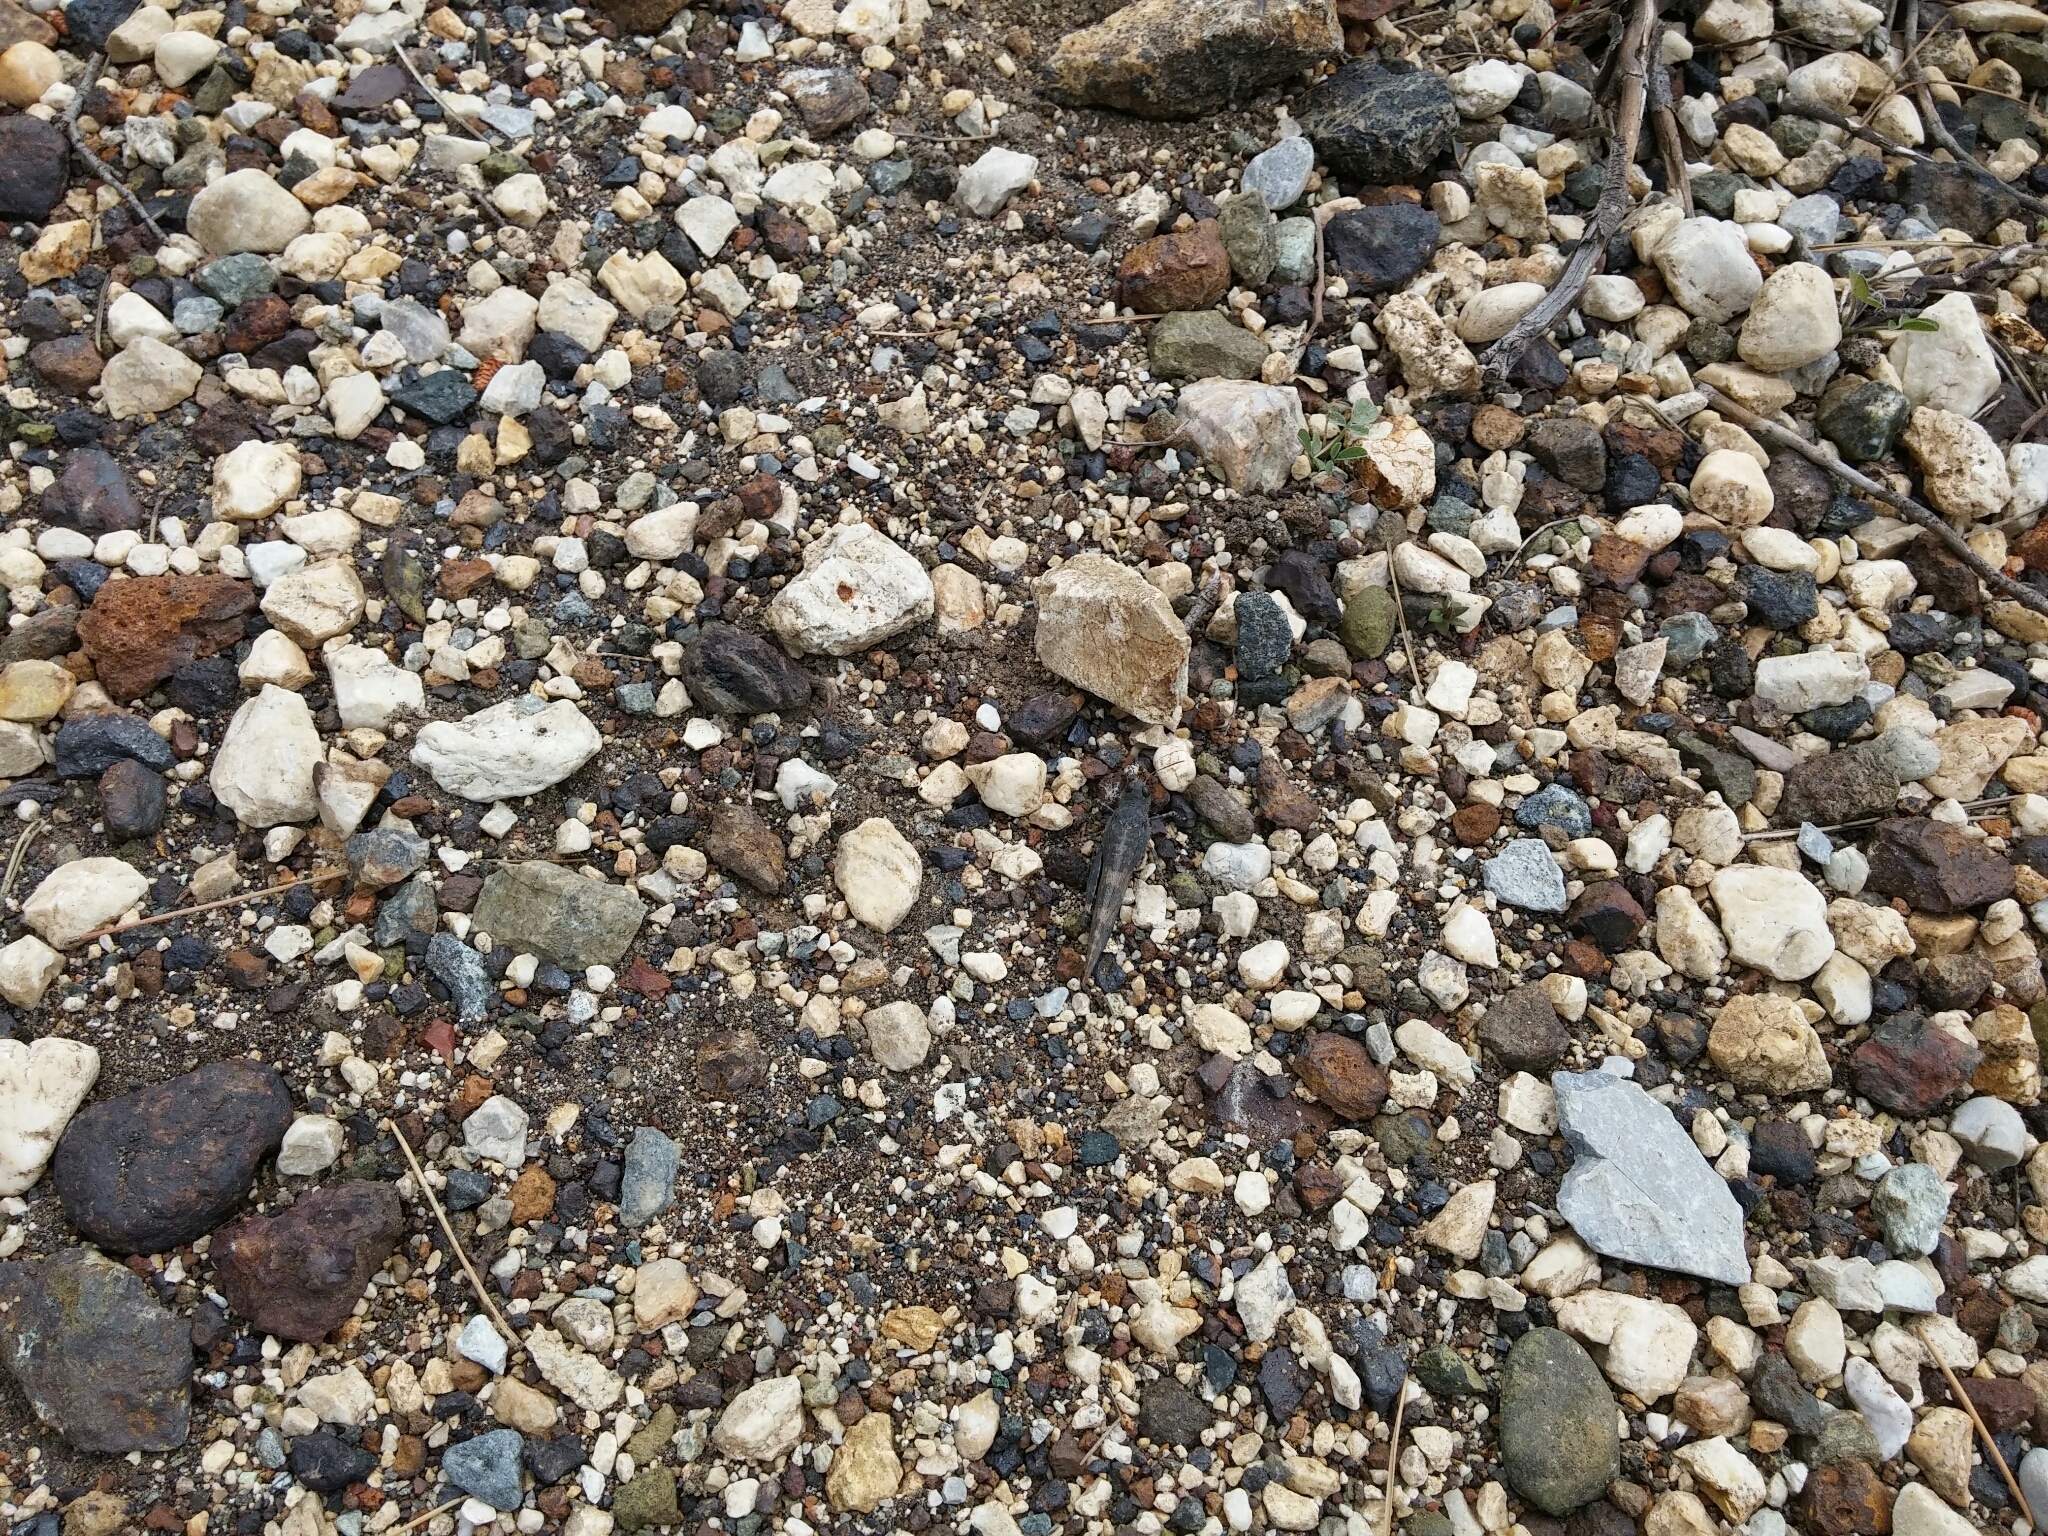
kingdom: Animalia
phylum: Arthropoda
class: Insecta
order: Orthoptera
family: Acrididae
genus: Oedipoda
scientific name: Oedipoda caerulescens
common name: Blue-winged grasshopper
